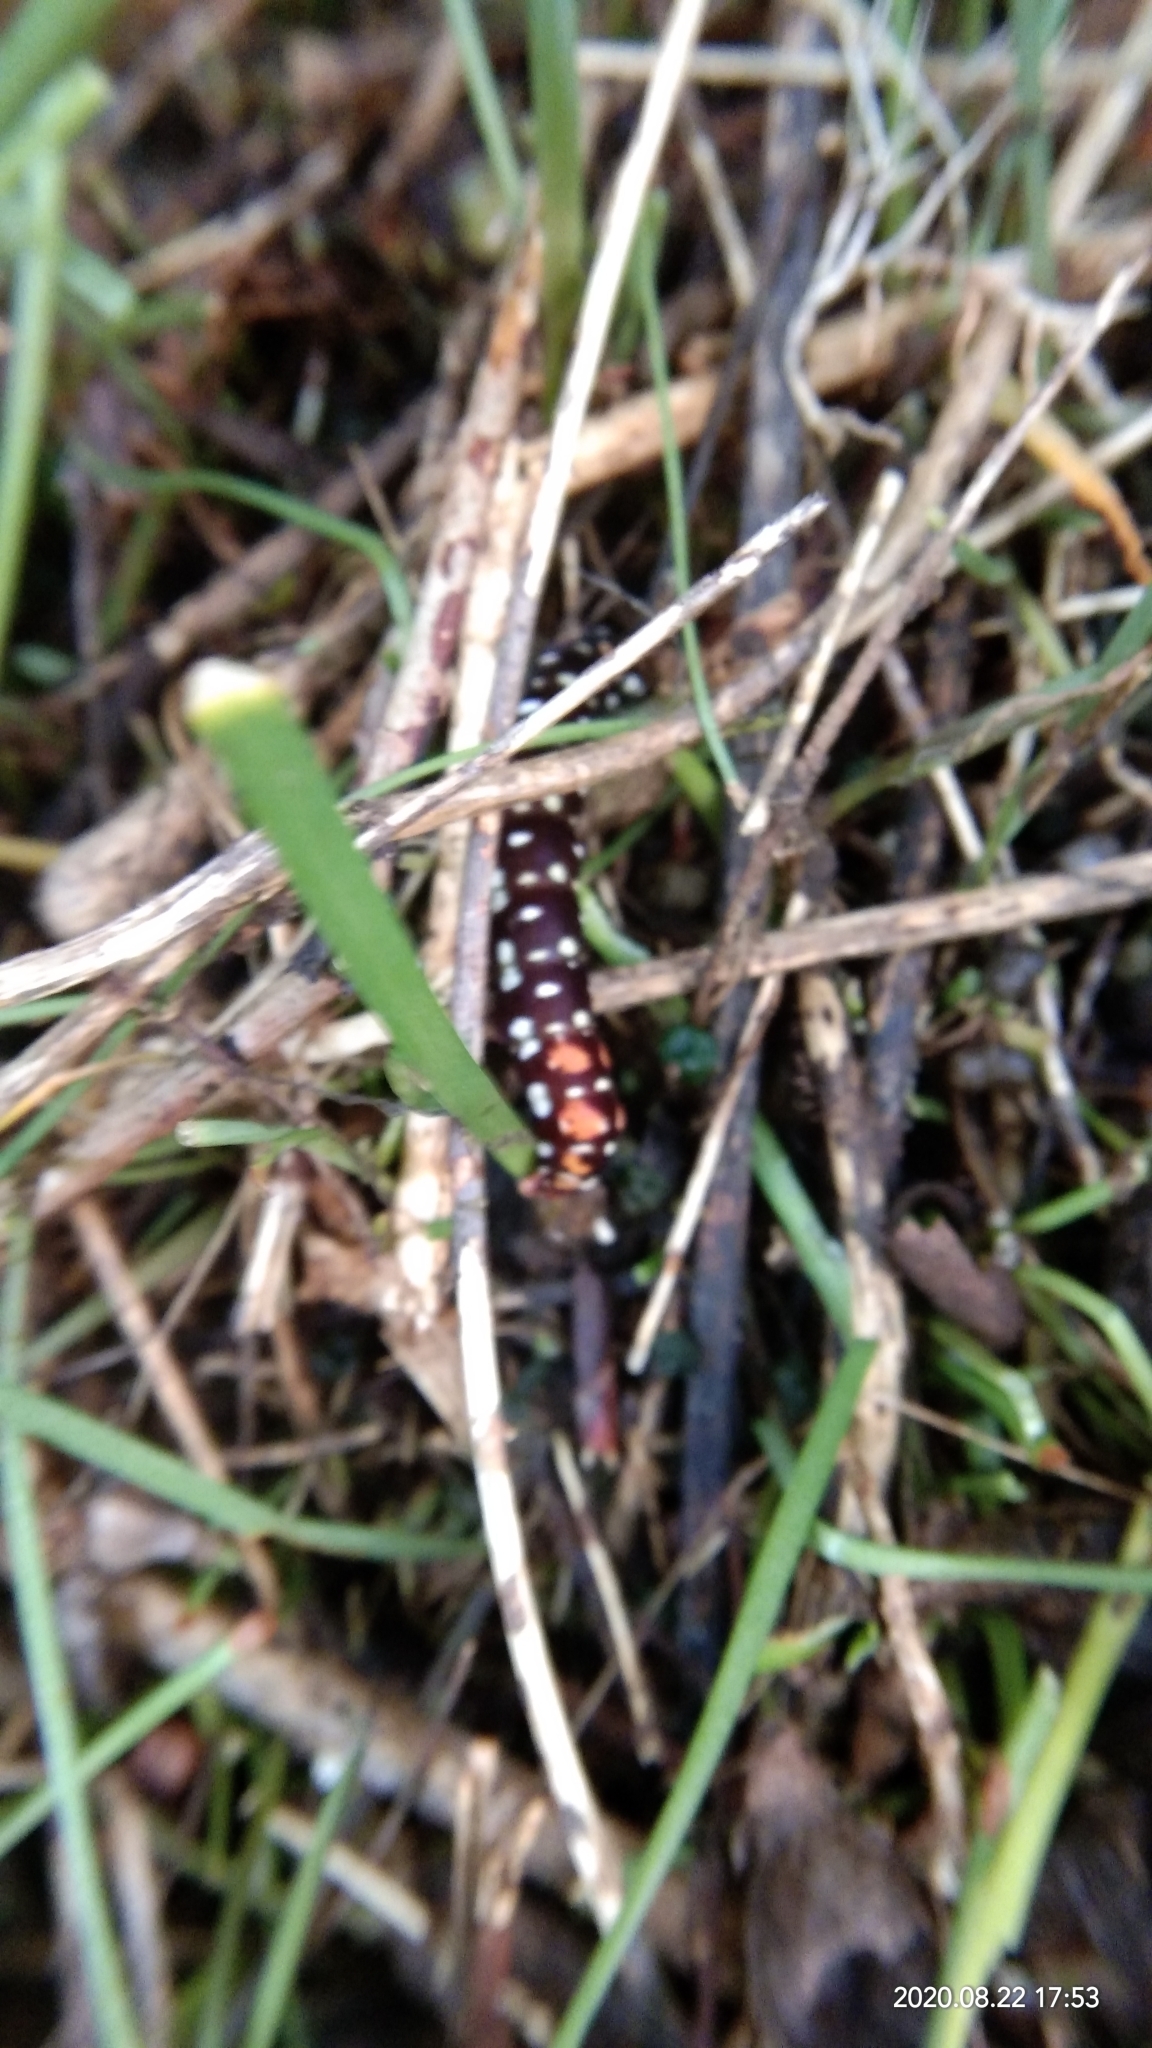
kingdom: Animalia
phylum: Arthropoda
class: Insecta
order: Lepidoptera
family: Noctuidae
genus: Polytela
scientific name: Polytela gloriosae
